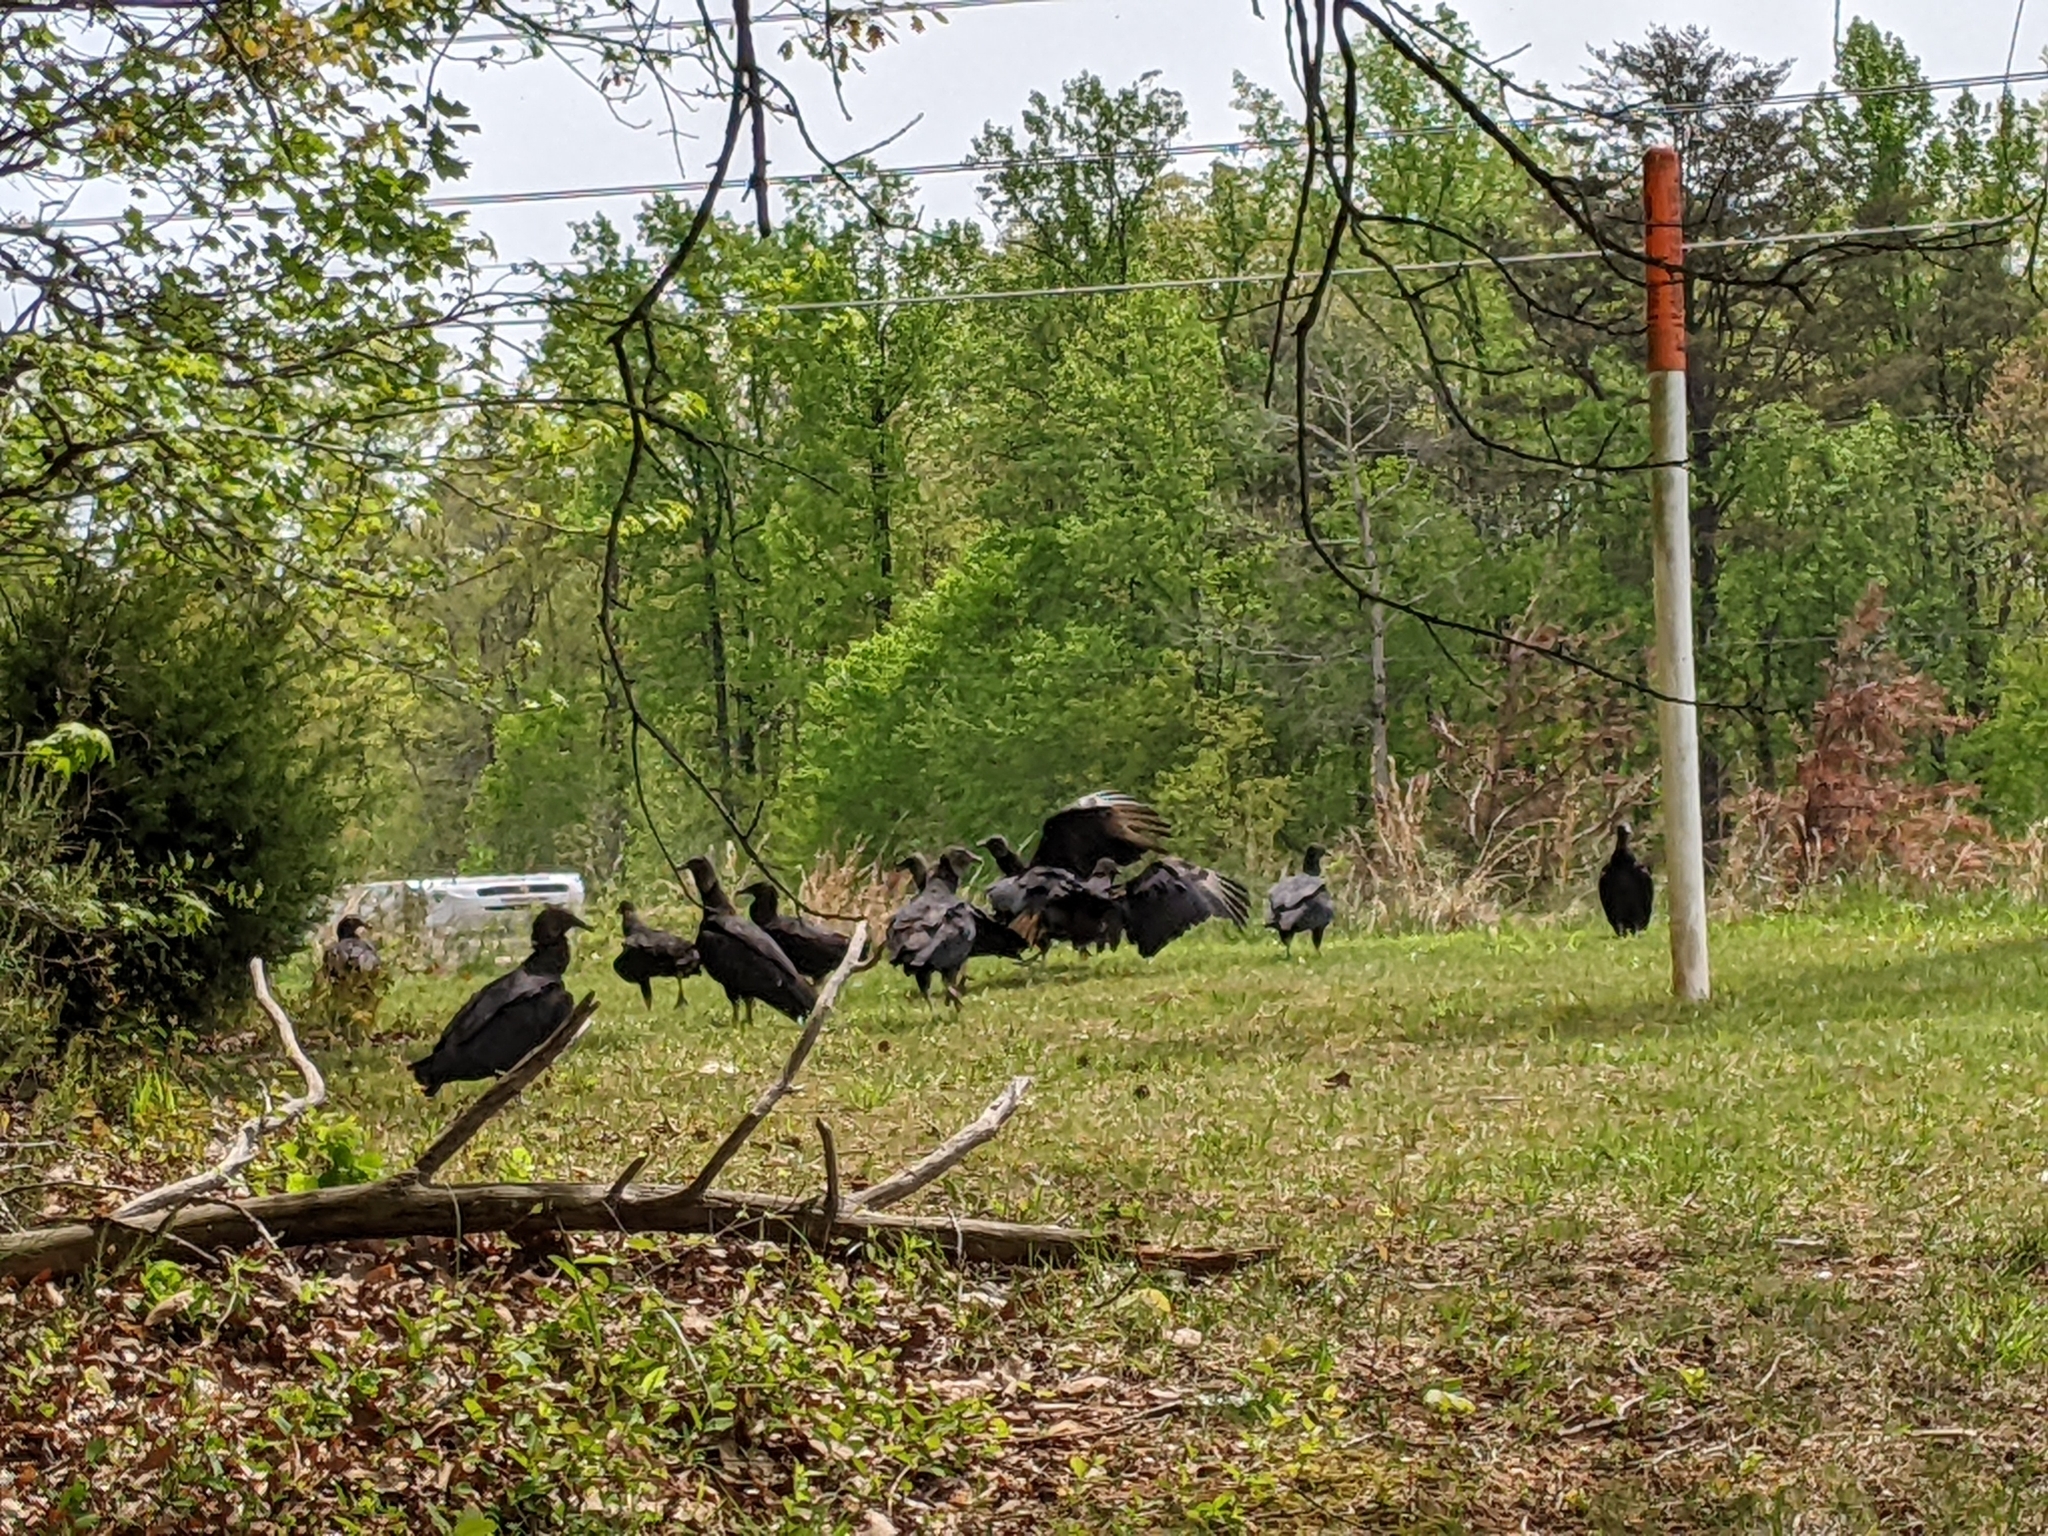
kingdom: Animalia
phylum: Chordata
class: Aves
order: Accipitriformes
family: Cathartidae
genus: Coragyps
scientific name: Coragyps atratus
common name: Black vulture
